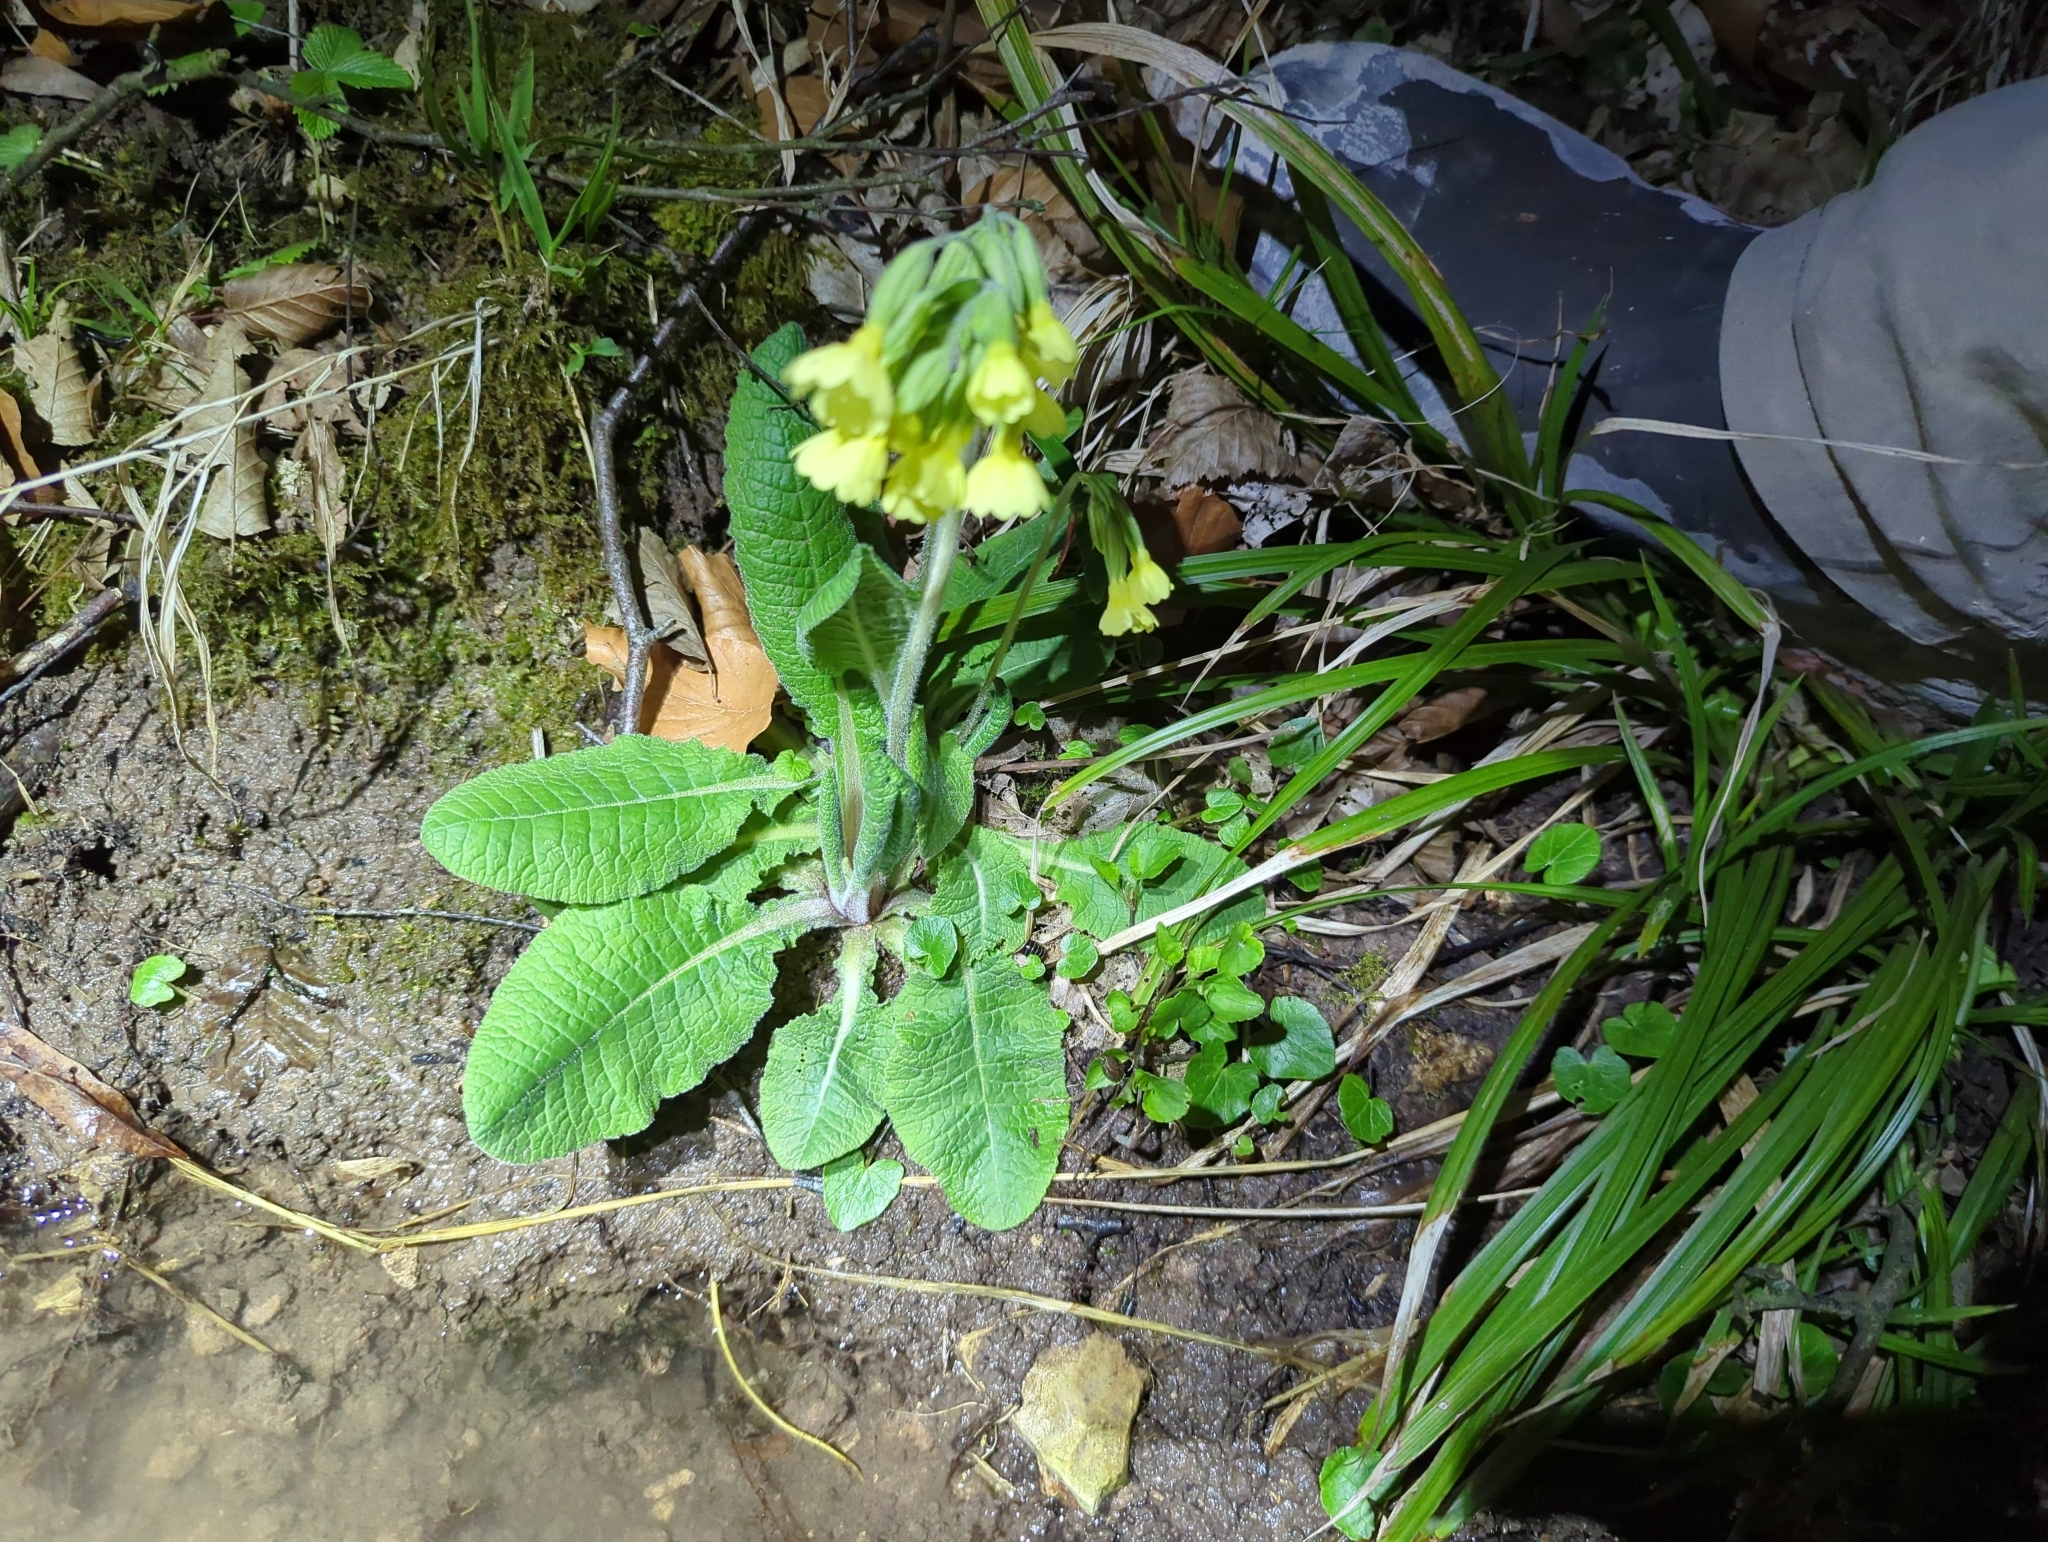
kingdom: Plantae
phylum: Tracheophyta
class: Magnoliopsida
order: Ericales
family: Primulaceae
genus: Primula
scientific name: Primula elatior
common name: Oxlip
